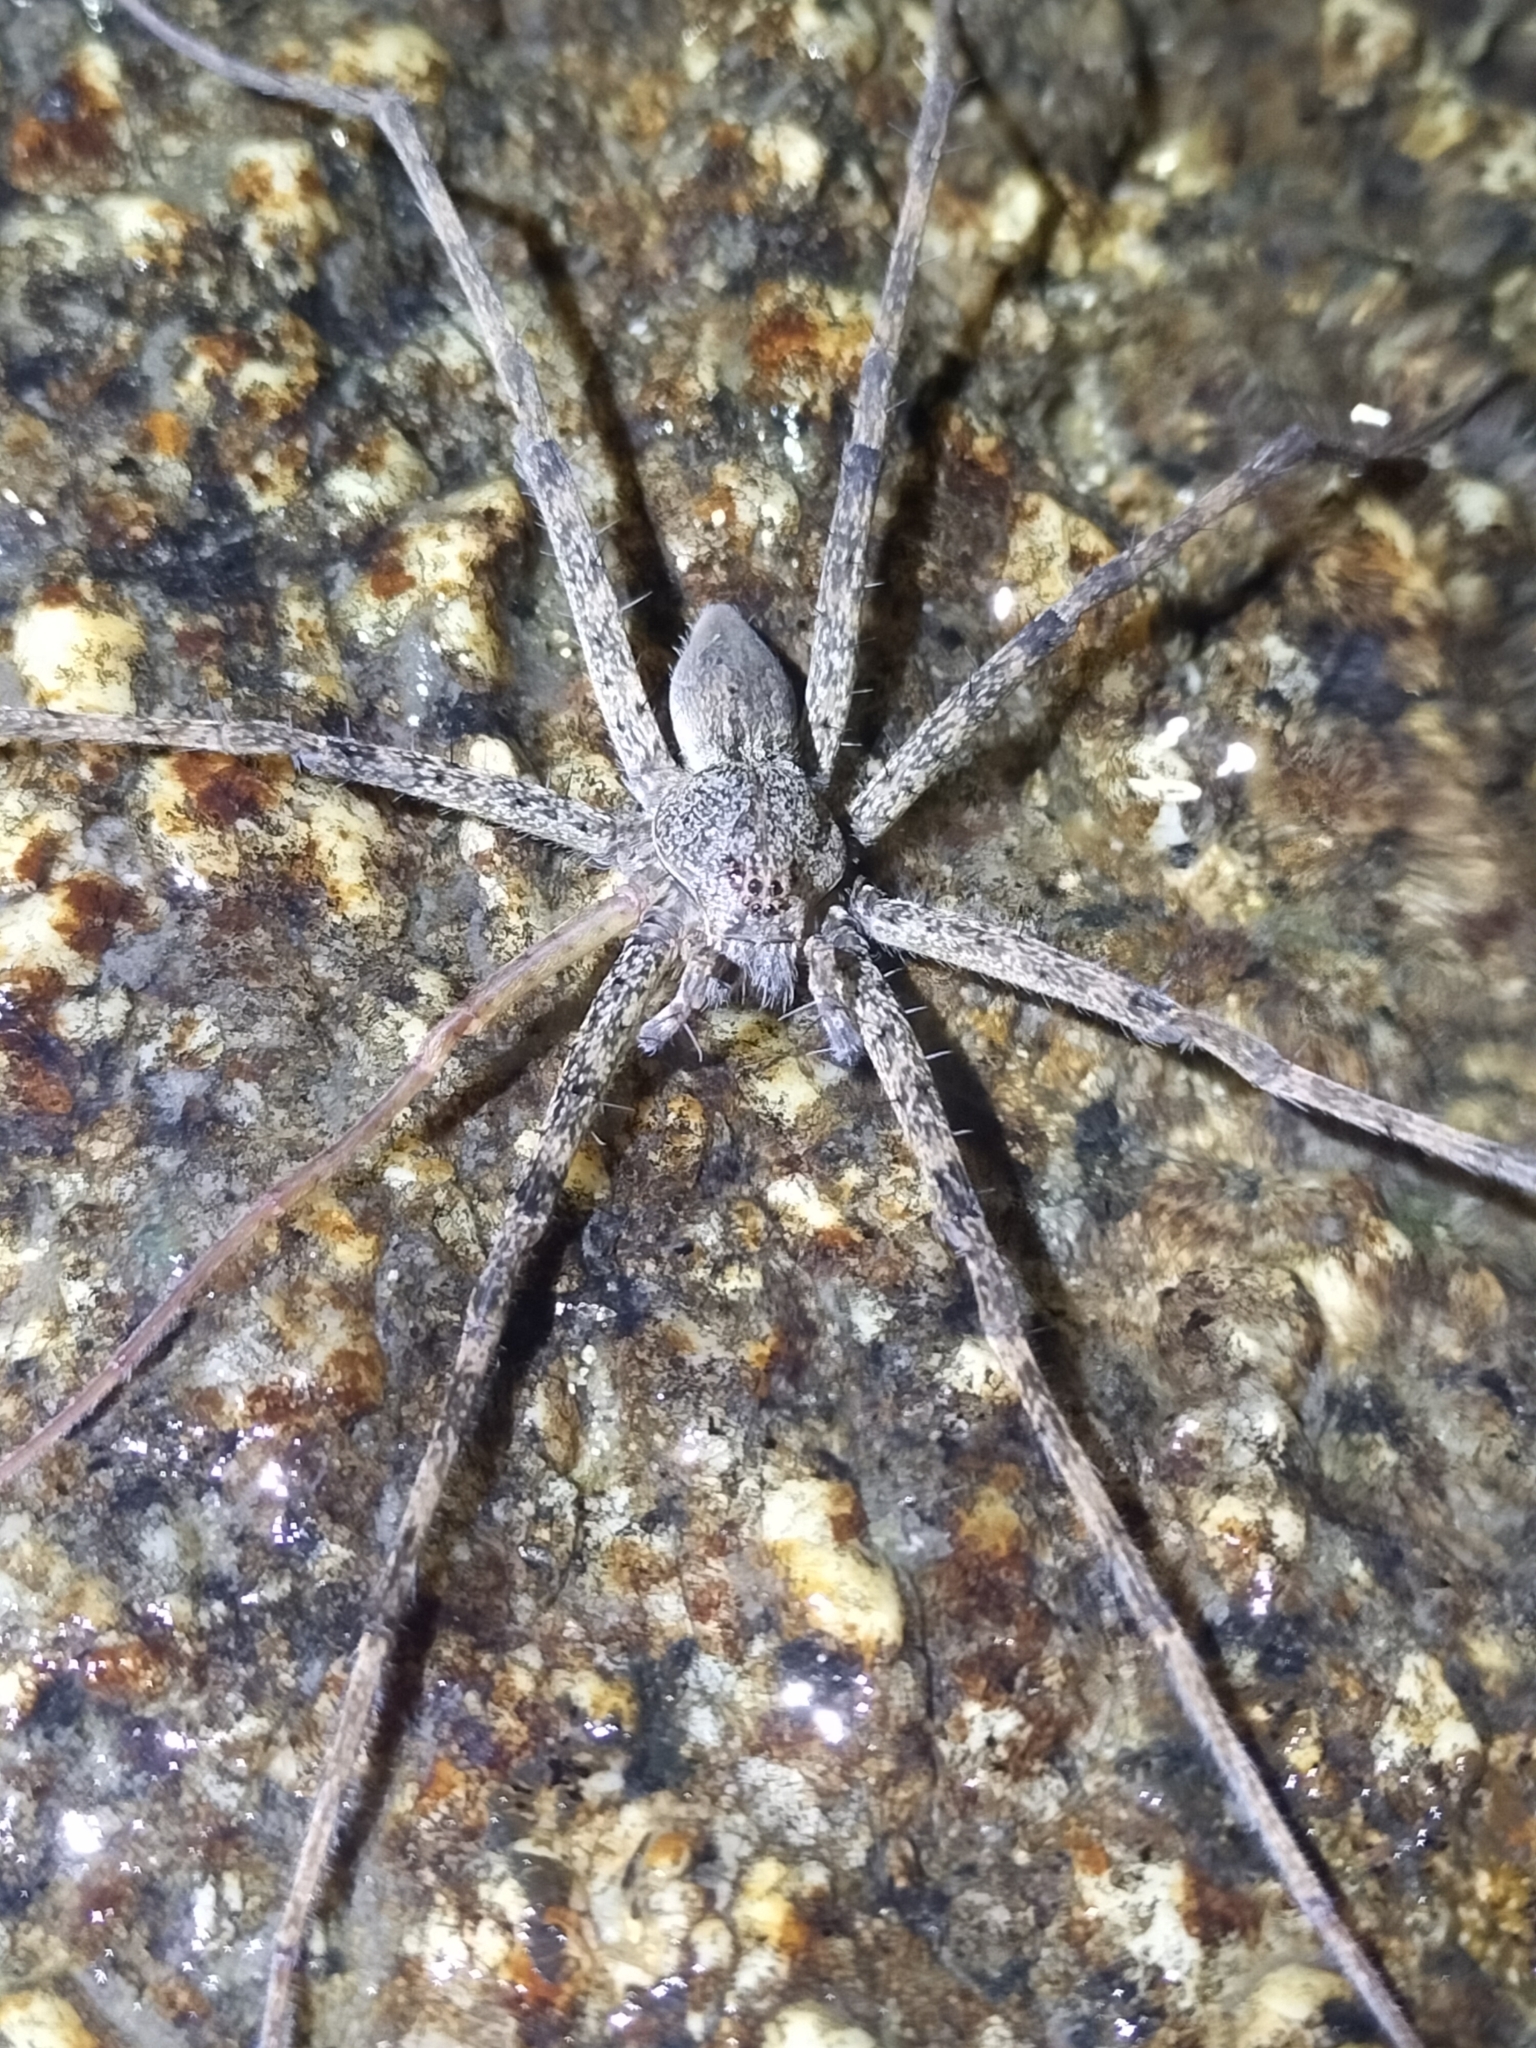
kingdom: Animalia
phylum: Arthropoda
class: Arachnida
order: Araneae
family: Pisauridae
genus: Megadolomedes
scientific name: Megadolomedes trux
